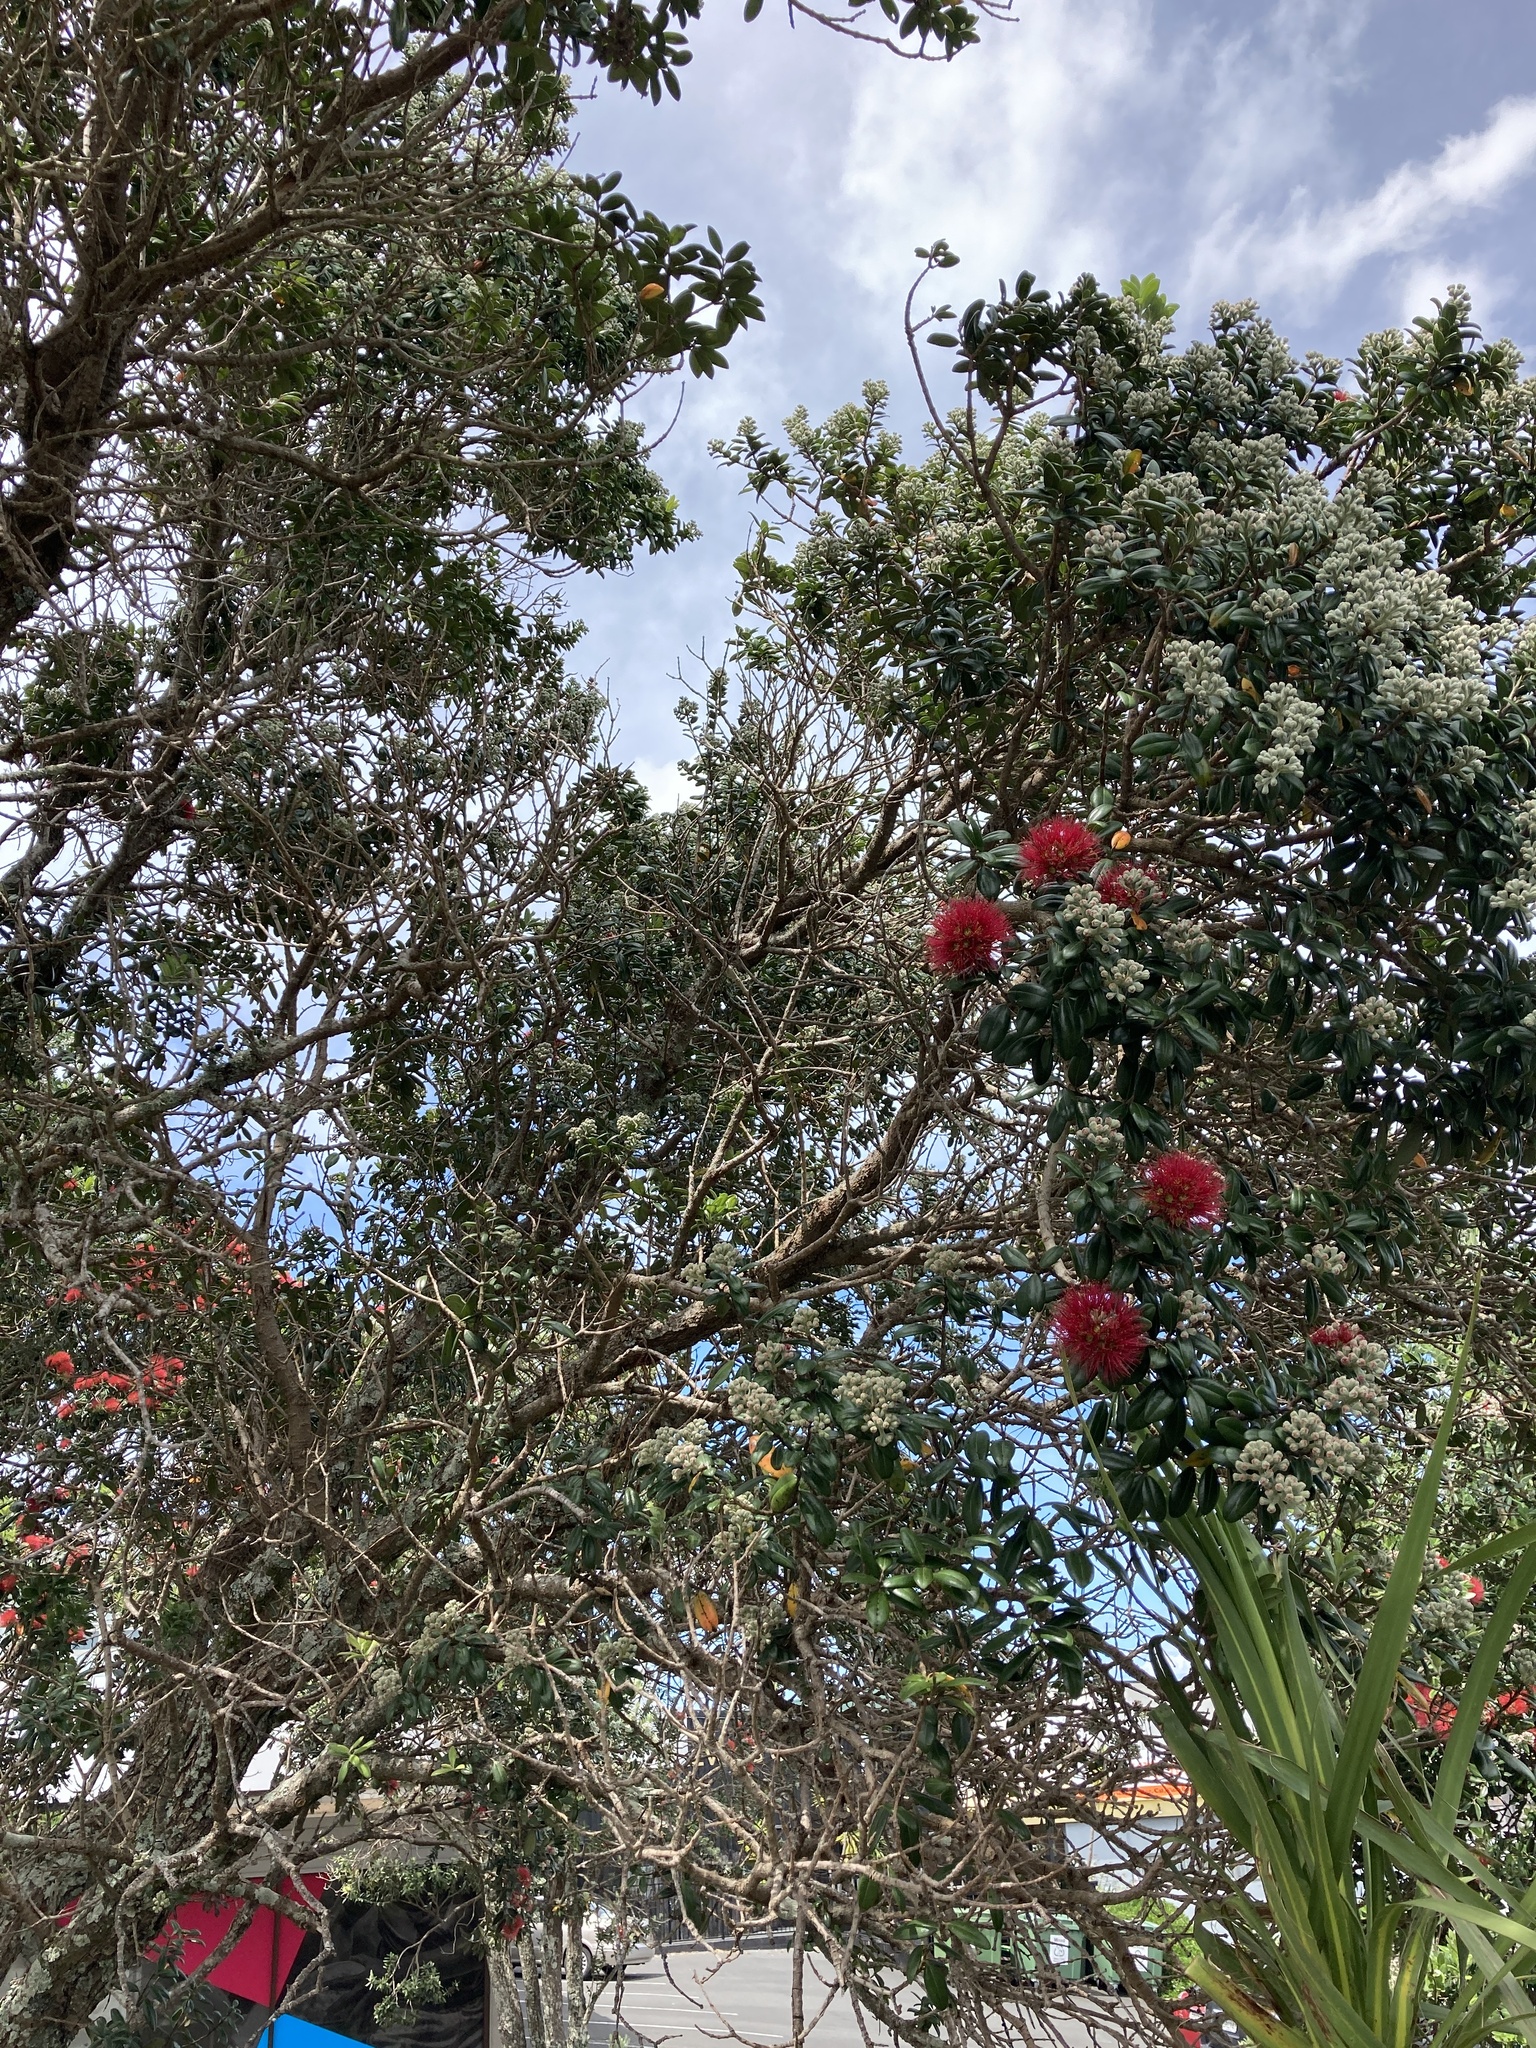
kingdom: Plantae
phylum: Tracheophyta
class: Magnoliopsida
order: Myrtales
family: Myrtaceae
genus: Metrosideros
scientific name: Metrosideros excelsa
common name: New zealand christmastree
